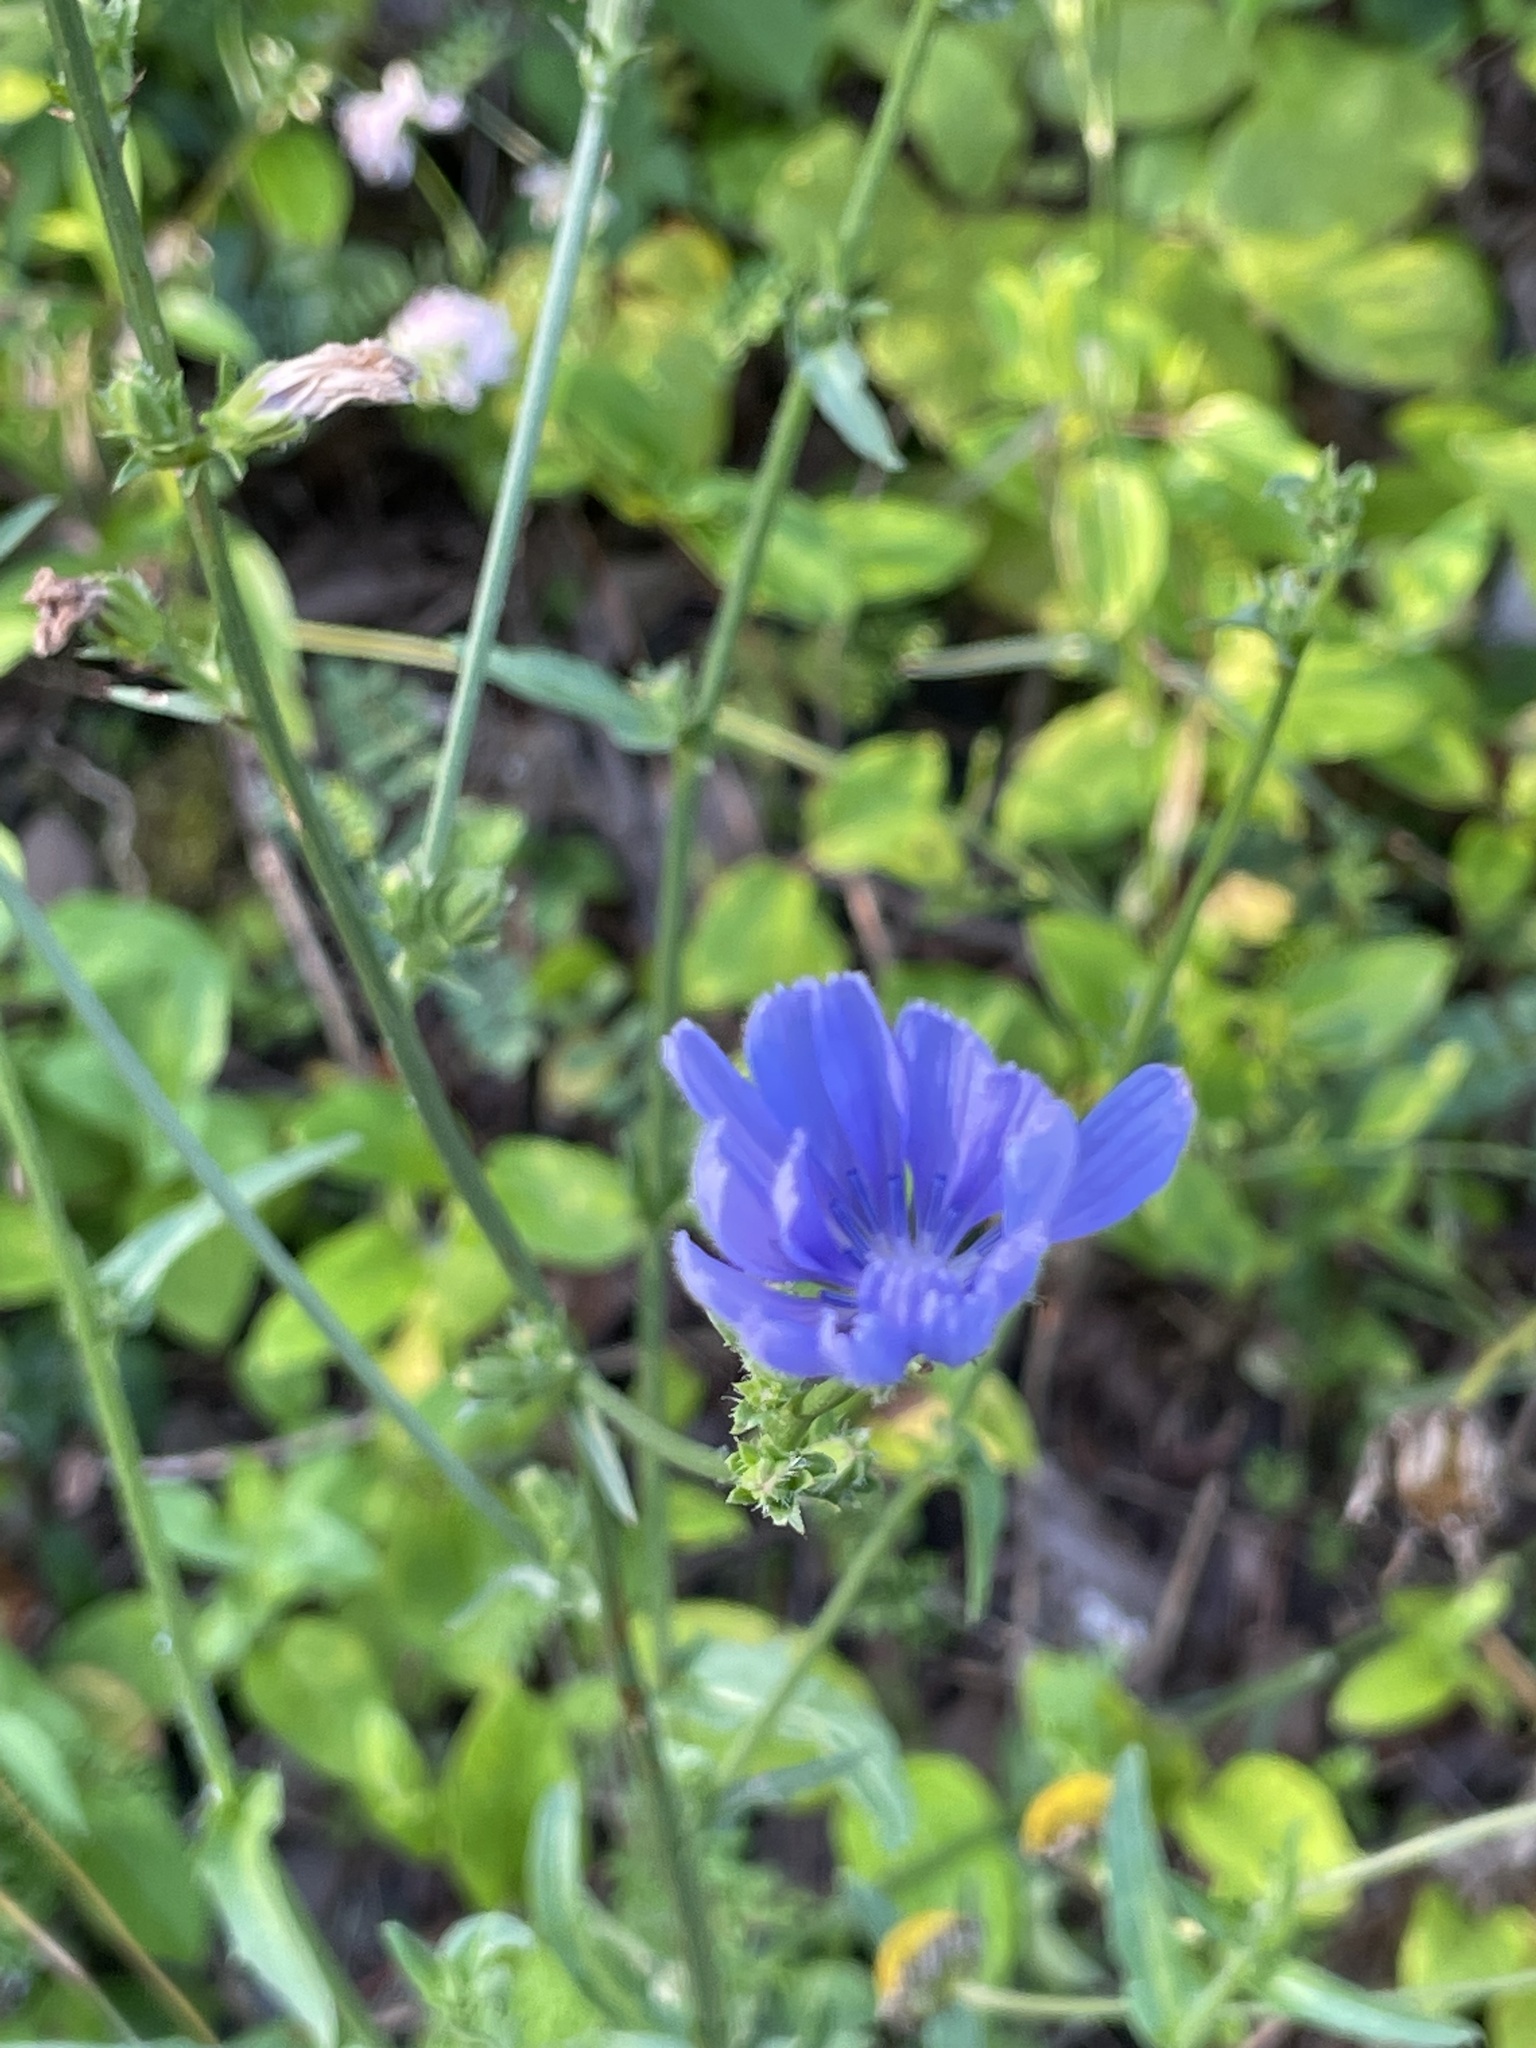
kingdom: Plantae
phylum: Tracheophyta
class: Magnoliopsida
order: Asterales
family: Asteraceae
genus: Cichorium
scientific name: Cichorium intybus
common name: Chicory
